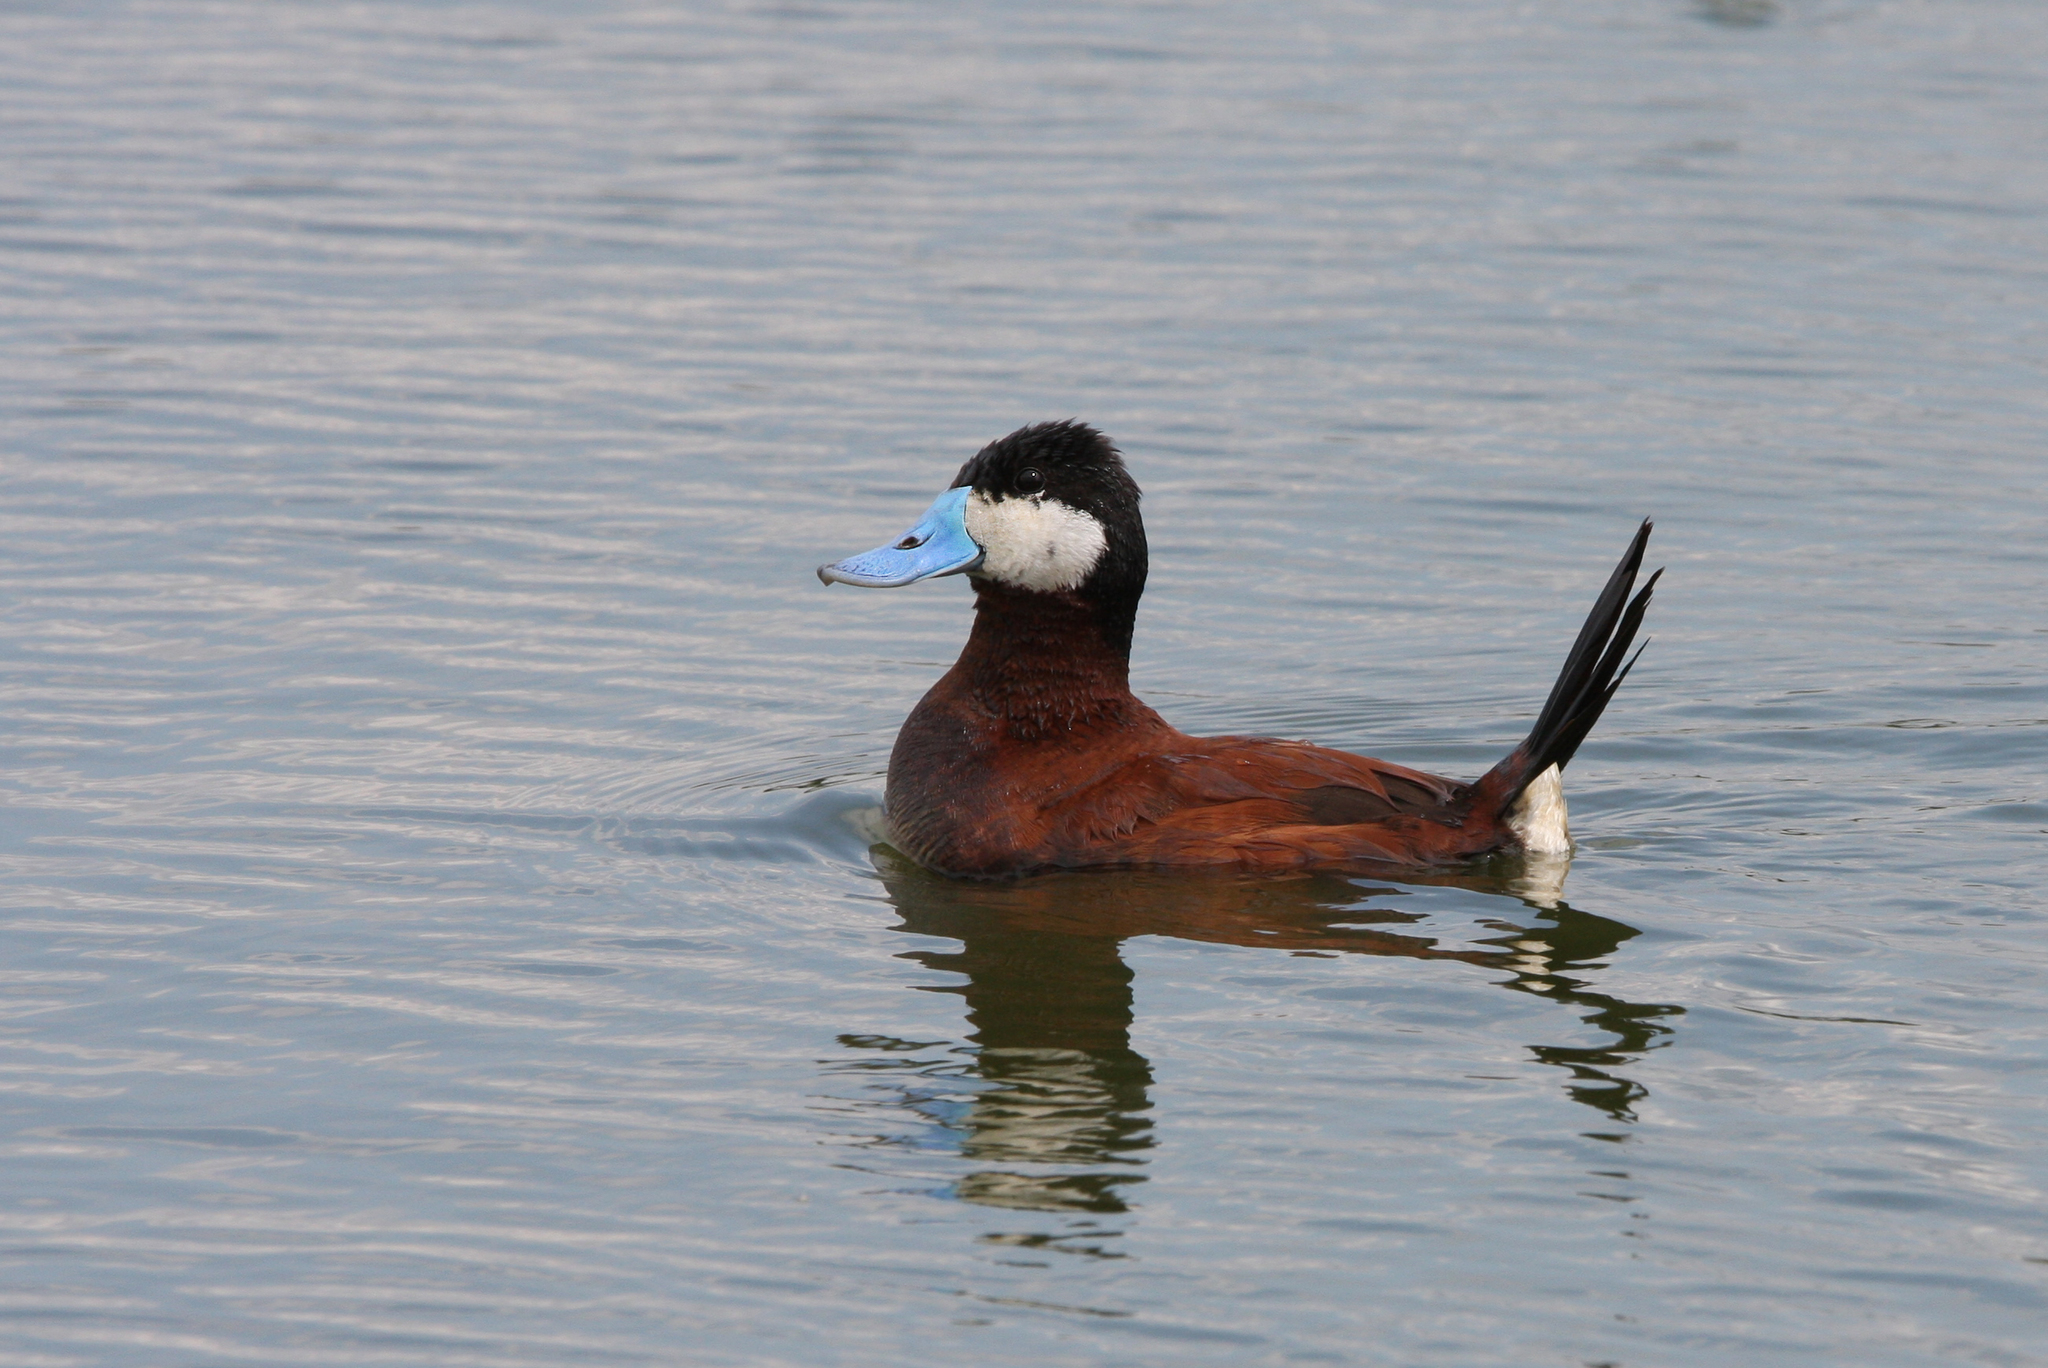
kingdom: Animalia
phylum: Chordata
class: Aves
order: Anseriformes
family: Anatidae
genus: Oxyura
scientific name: Oxyura jamaicensis
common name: Ruddy duck
